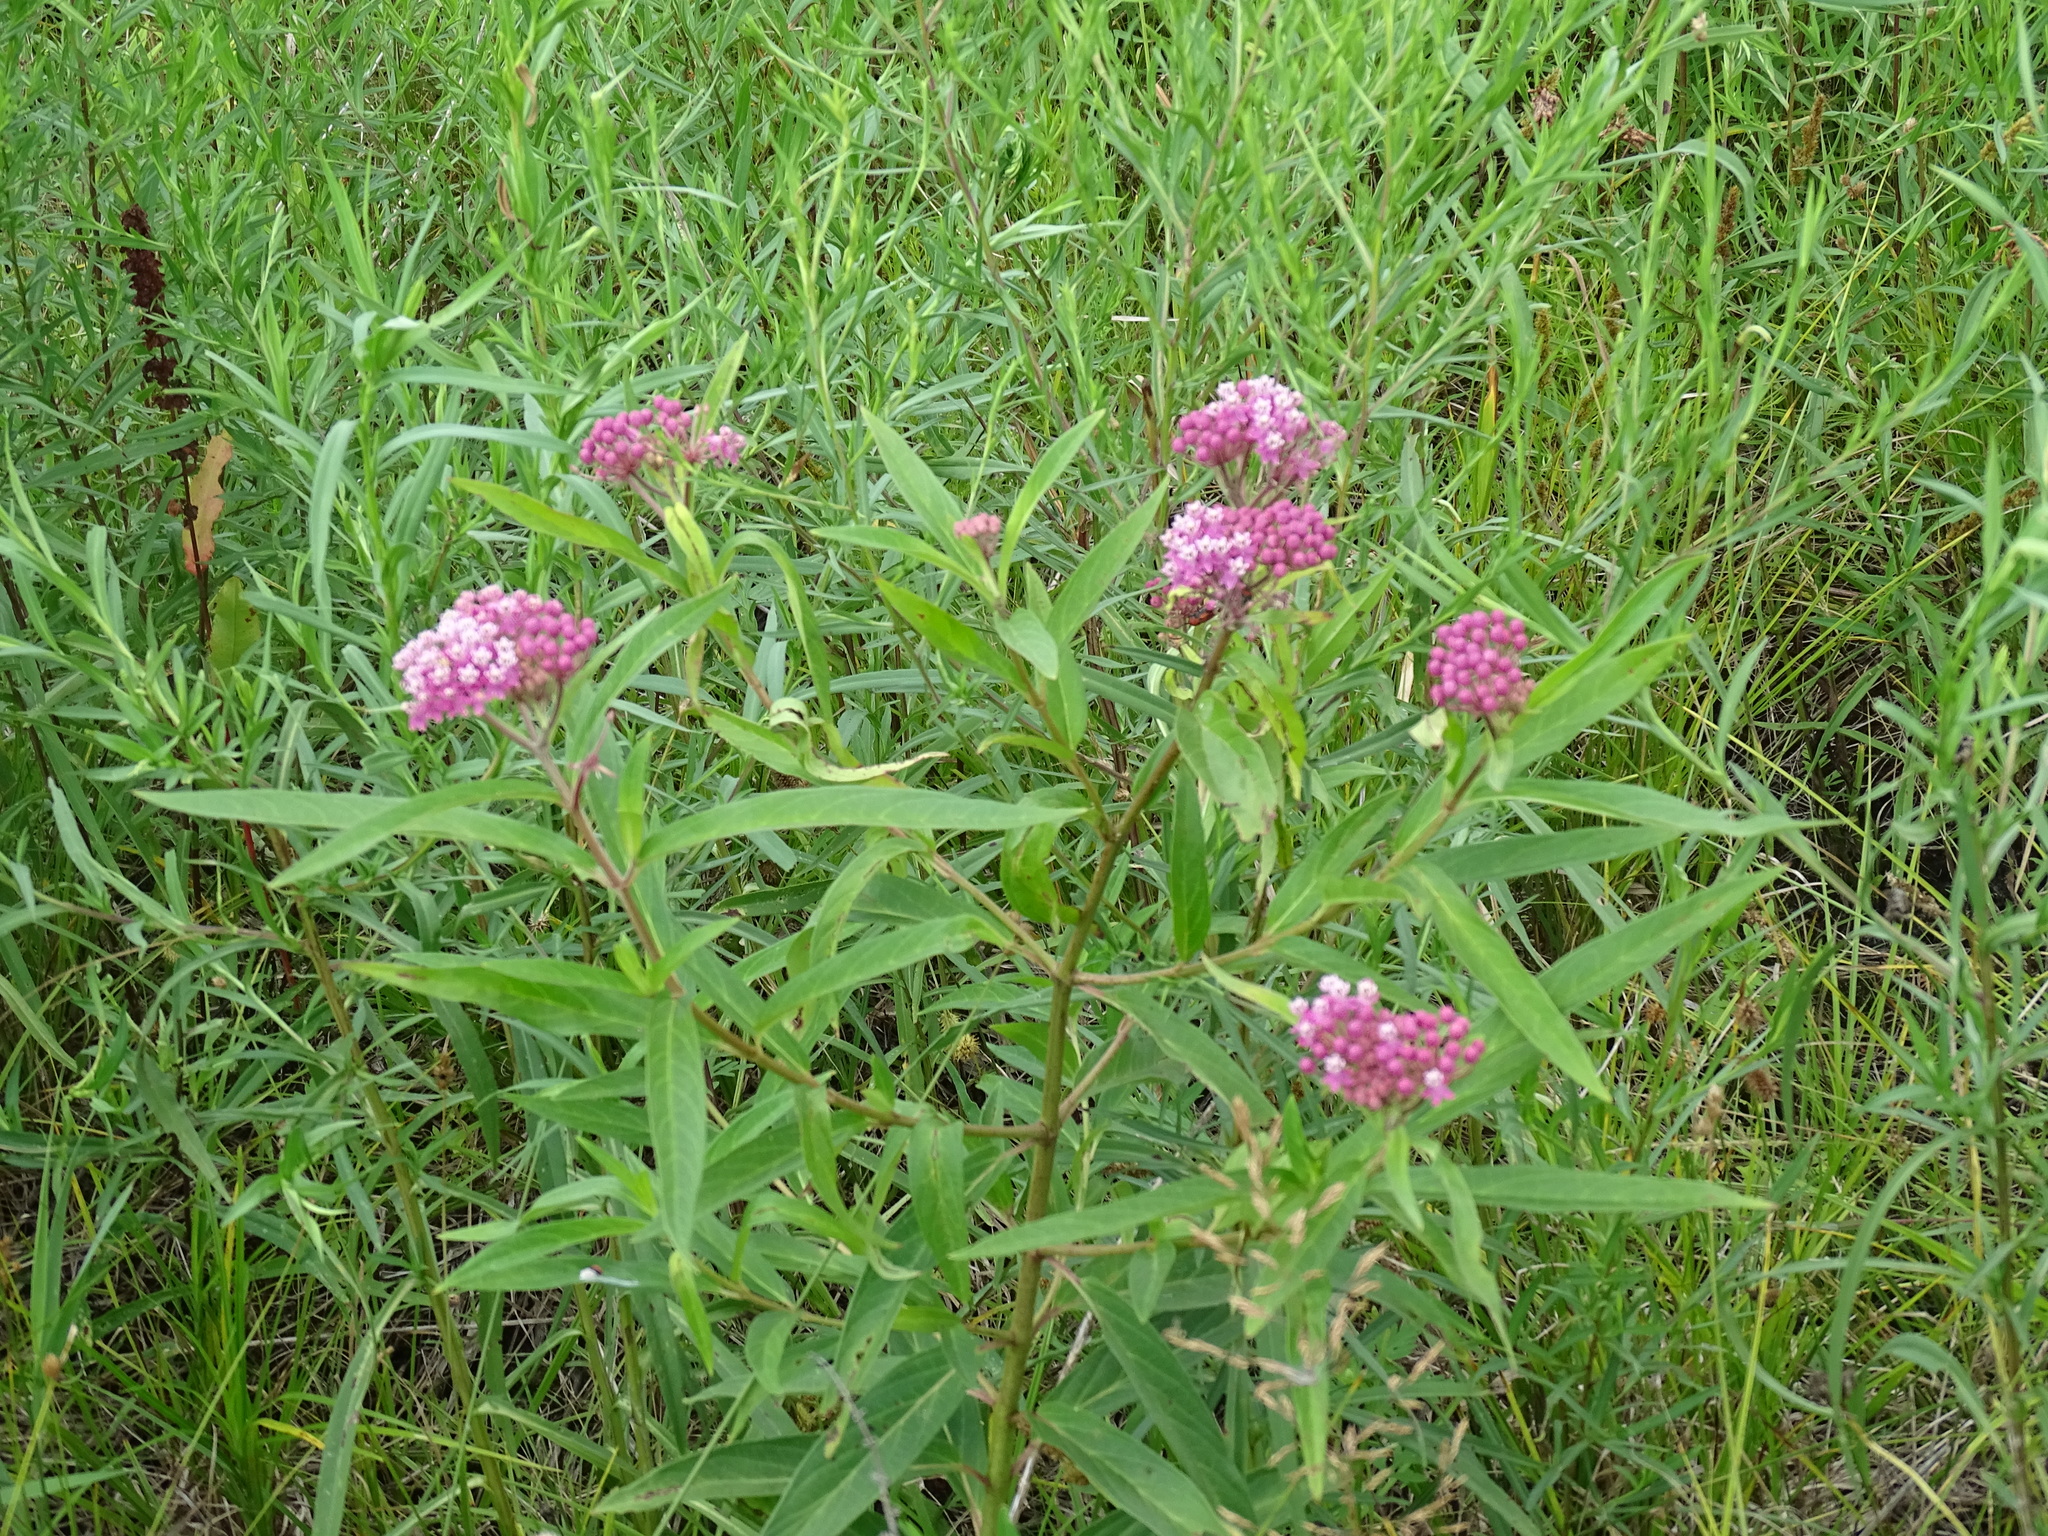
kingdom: Plantae
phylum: Tracheophyta
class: Magnoliopsida
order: Gentianales
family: Apocynaceae
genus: Asclepias
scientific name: Asclepias incarnata
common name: Swamp milkweed
